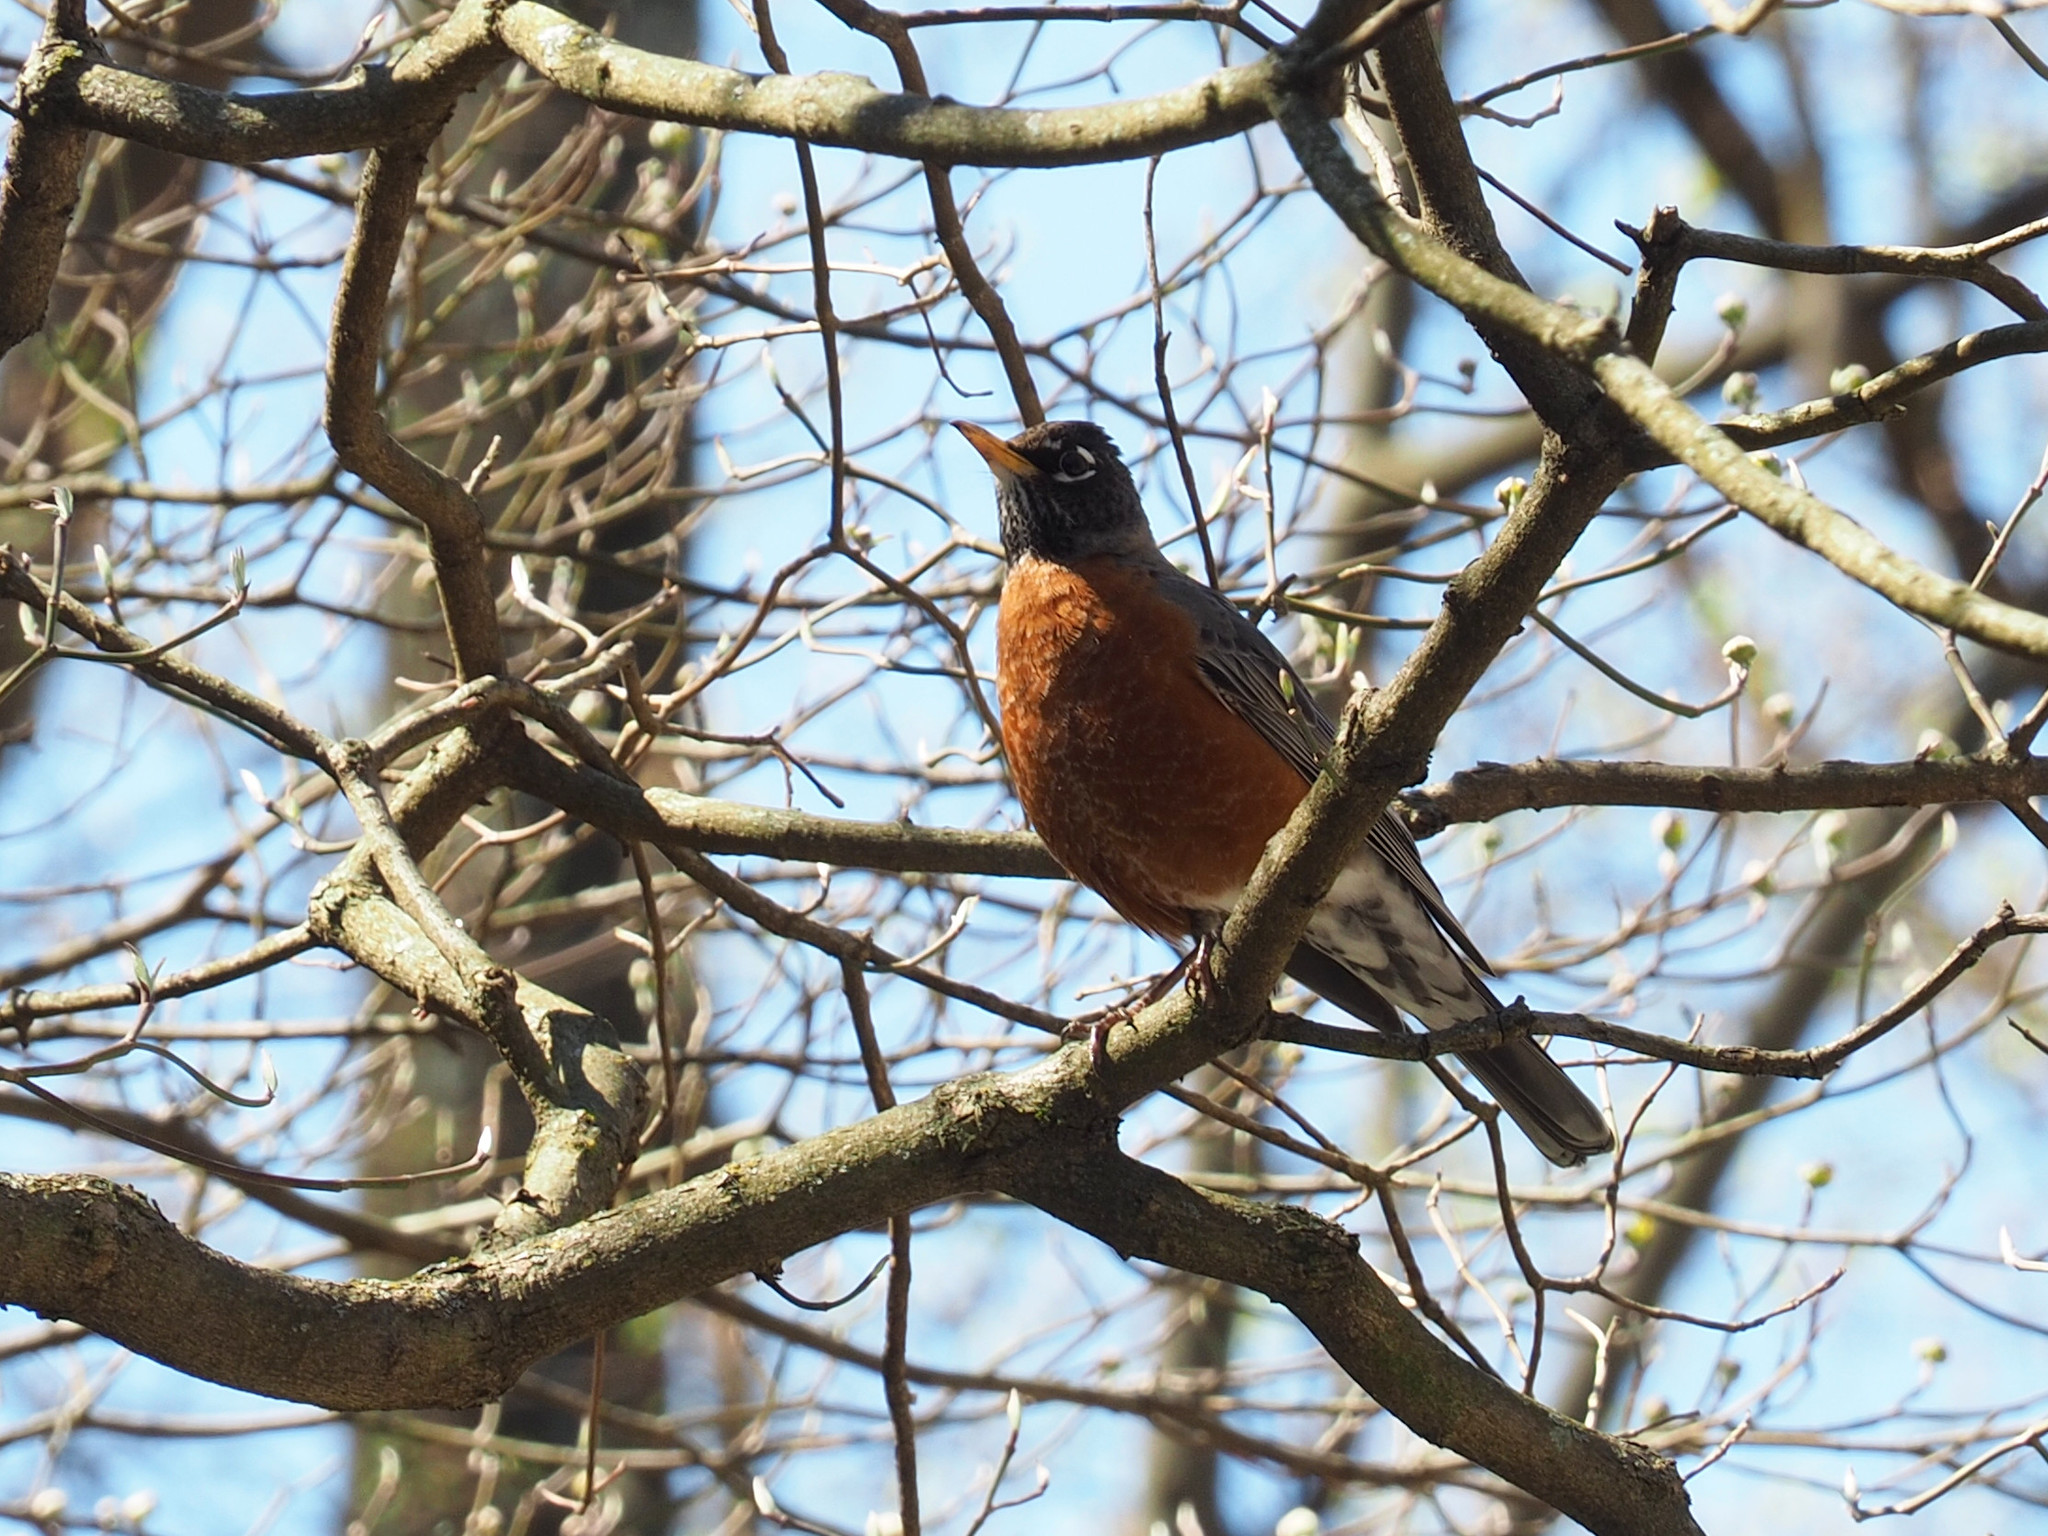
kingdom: Animalia
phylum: Chordata
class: Aves
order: Passeriformes
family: Turdidae
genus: Turdus
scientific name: Turdus migratorius
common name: American robin
